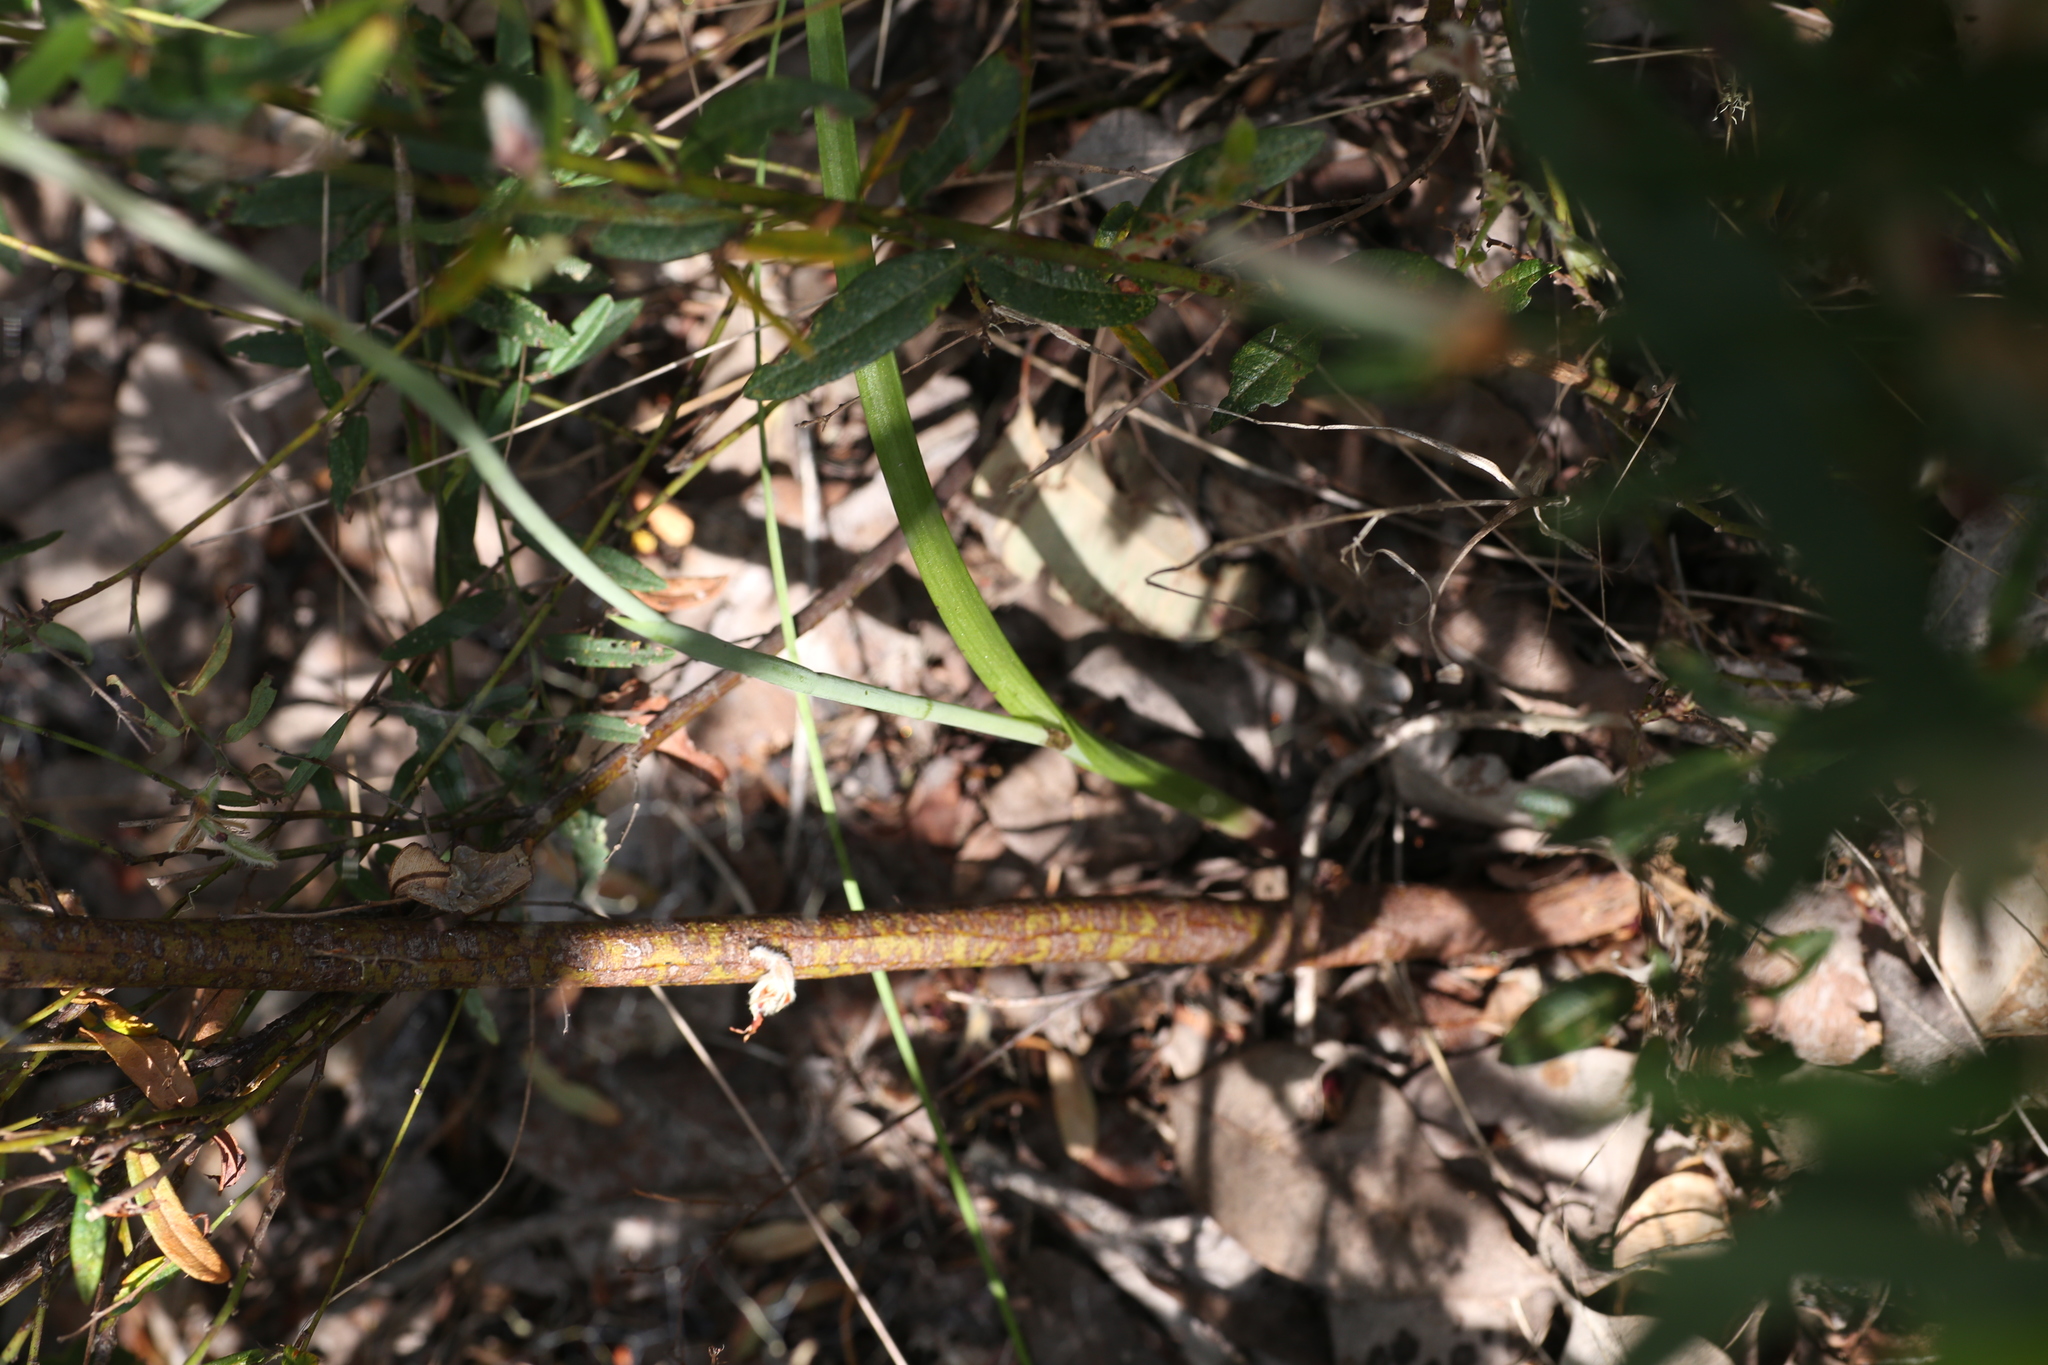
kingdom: Plantae
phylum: Tracheophyta
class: Liliopsida
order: Asparagales
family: Orchidaceae
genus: Thelymitra
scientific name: Thelymitra paludosa
